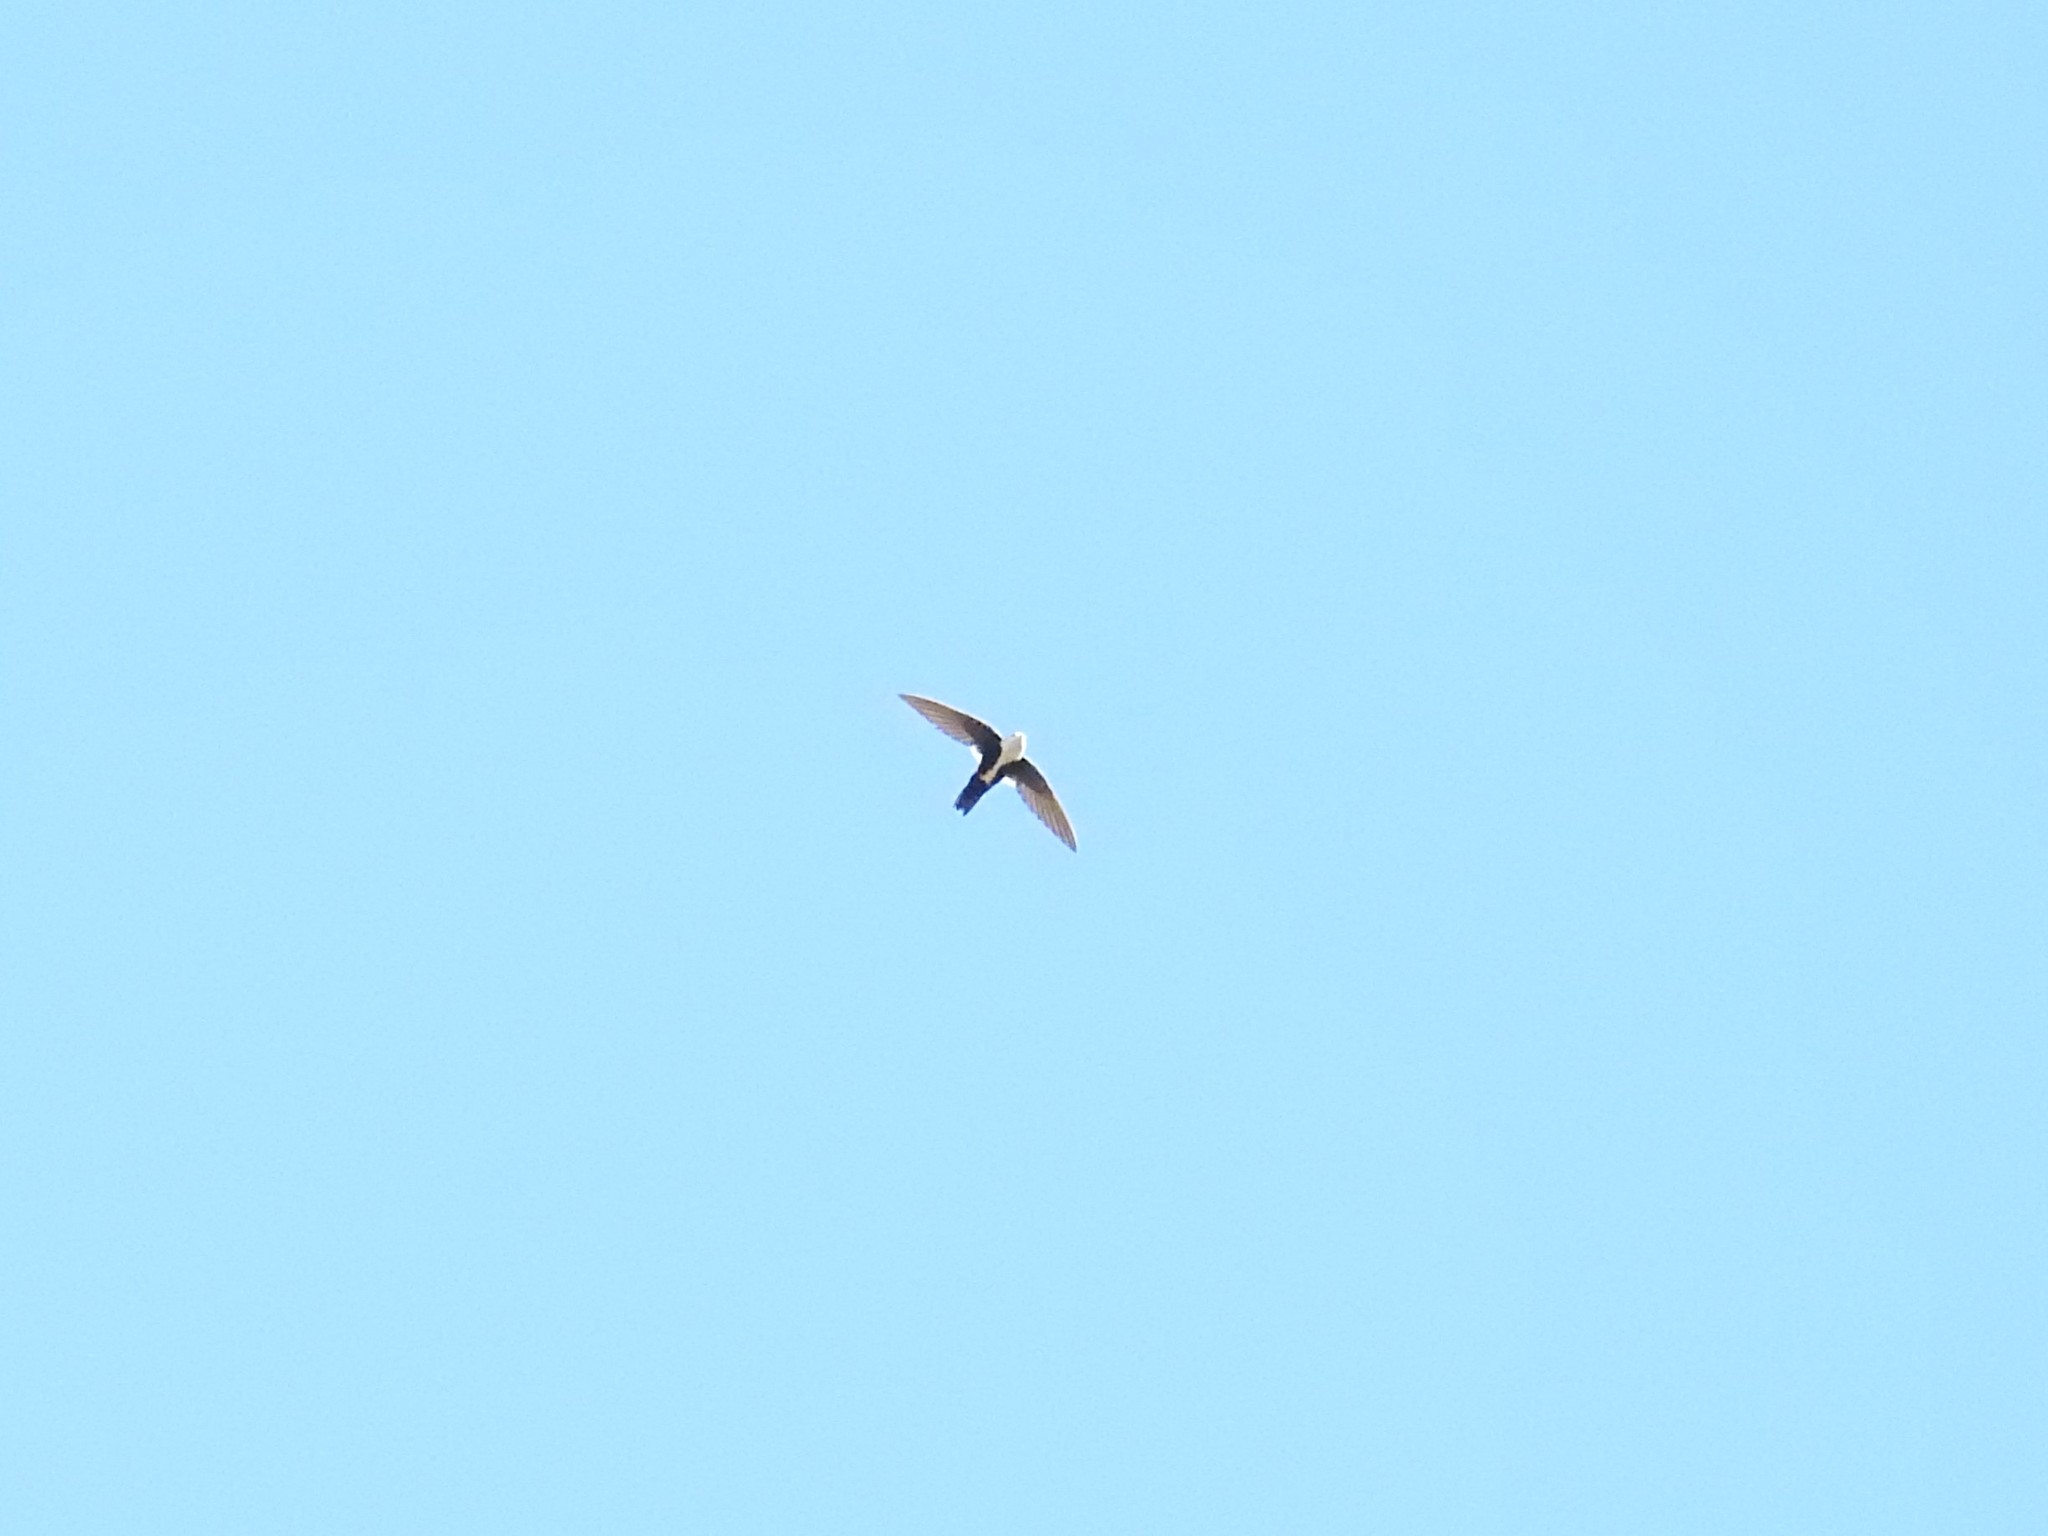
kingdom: Animalia
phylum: Chordata
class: Aves
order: Apodiformes
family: Apodidae
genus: Aeronautes
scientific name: Aeronautes saxatalis
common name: White-throated swift
